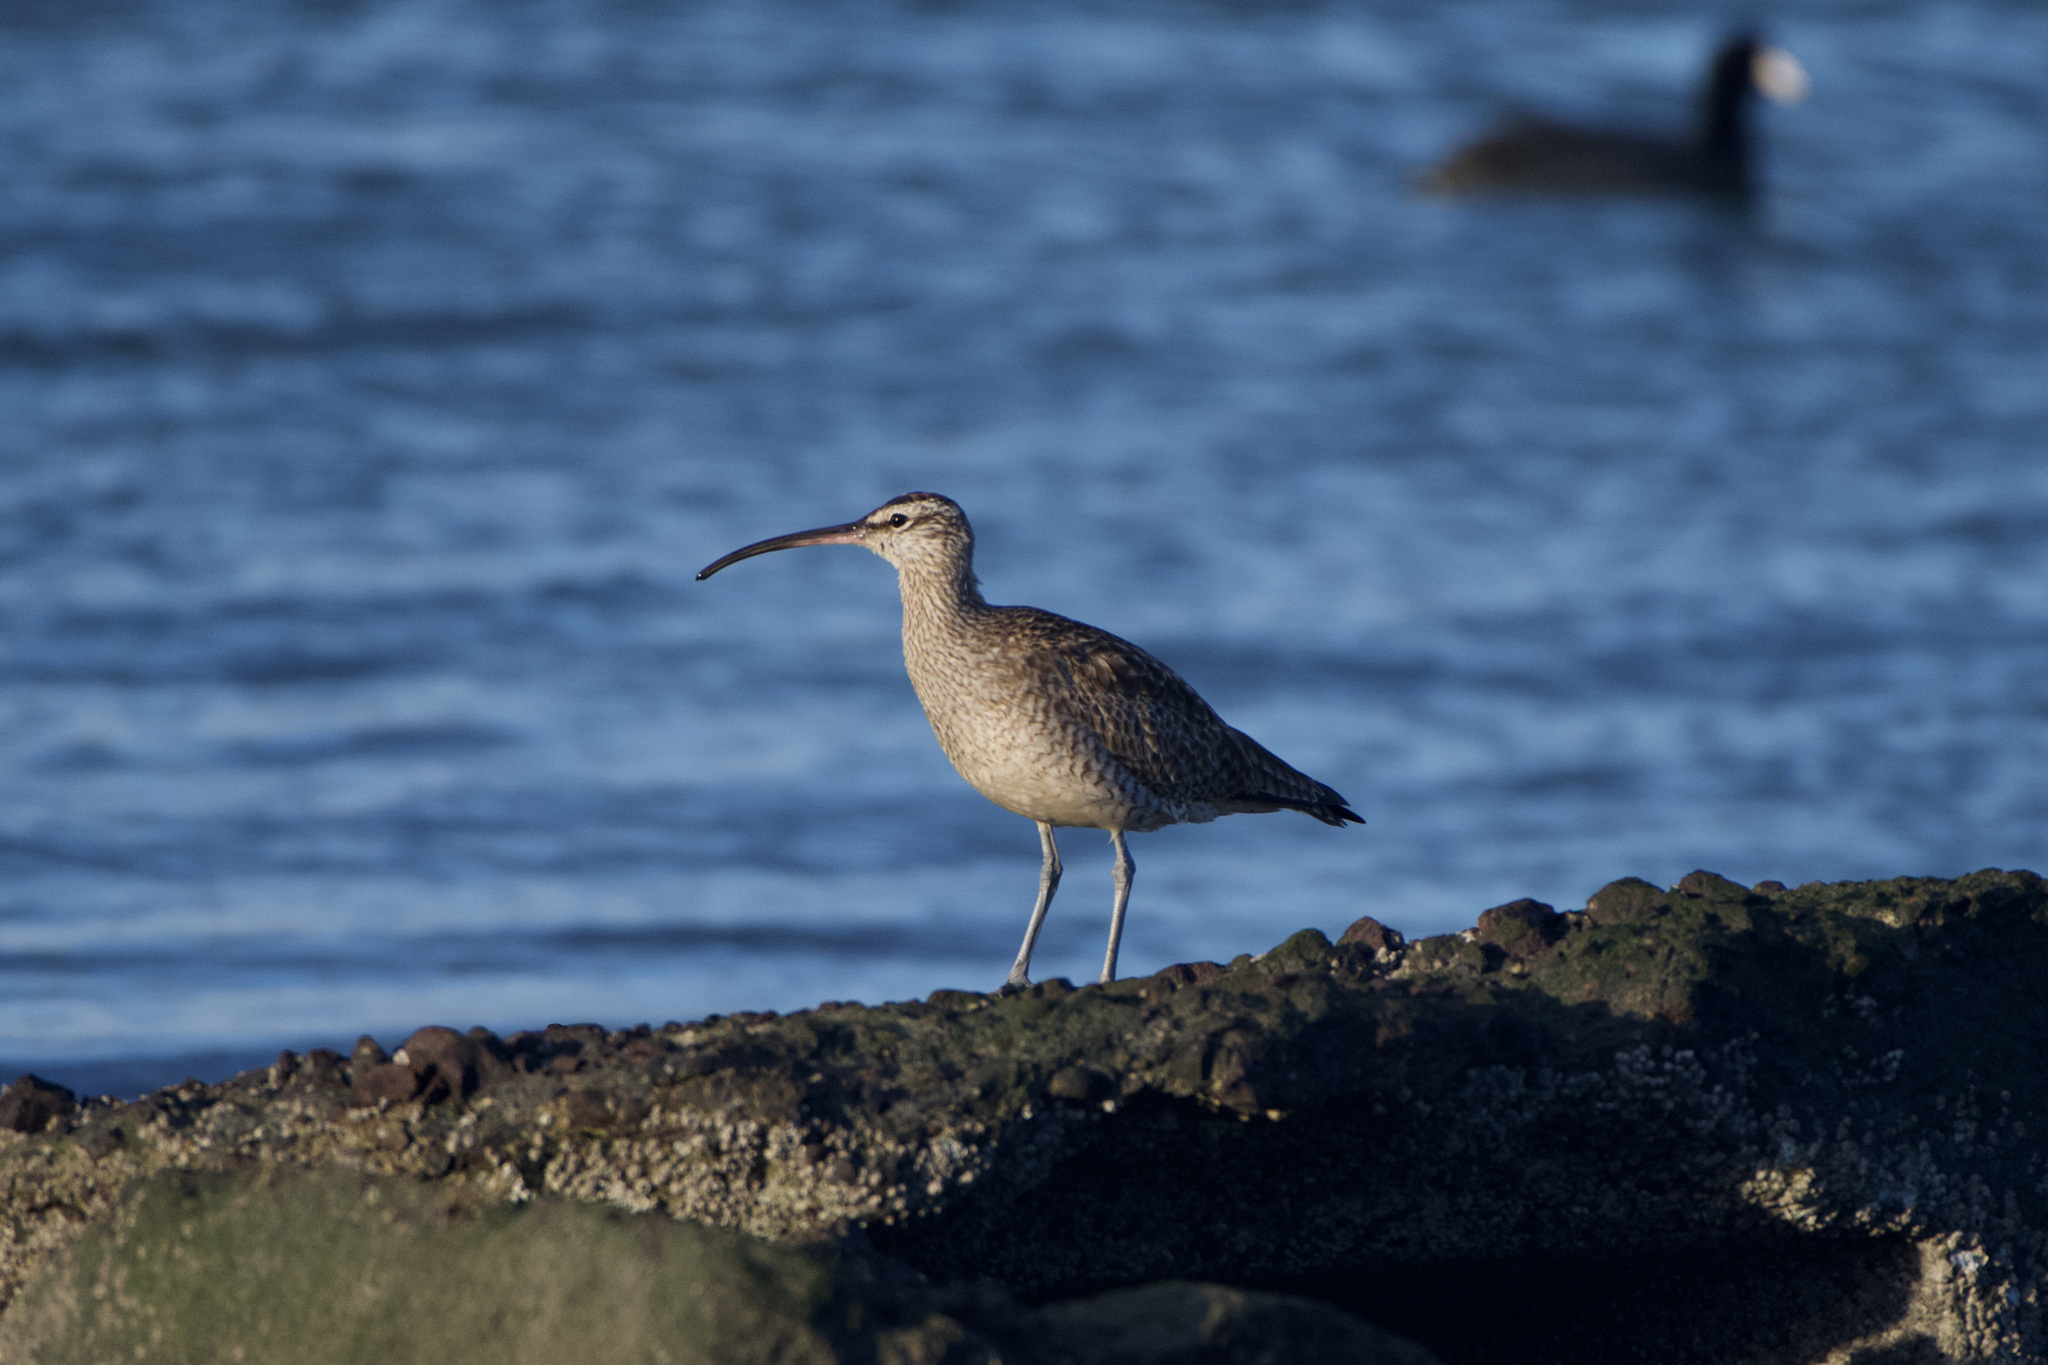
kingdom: Animalia
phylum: Chordata
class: Aves
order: Charadriiformes
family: Scolopacidae
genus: Numenius
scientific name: Numenius phaeopus
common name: Whimbrel
